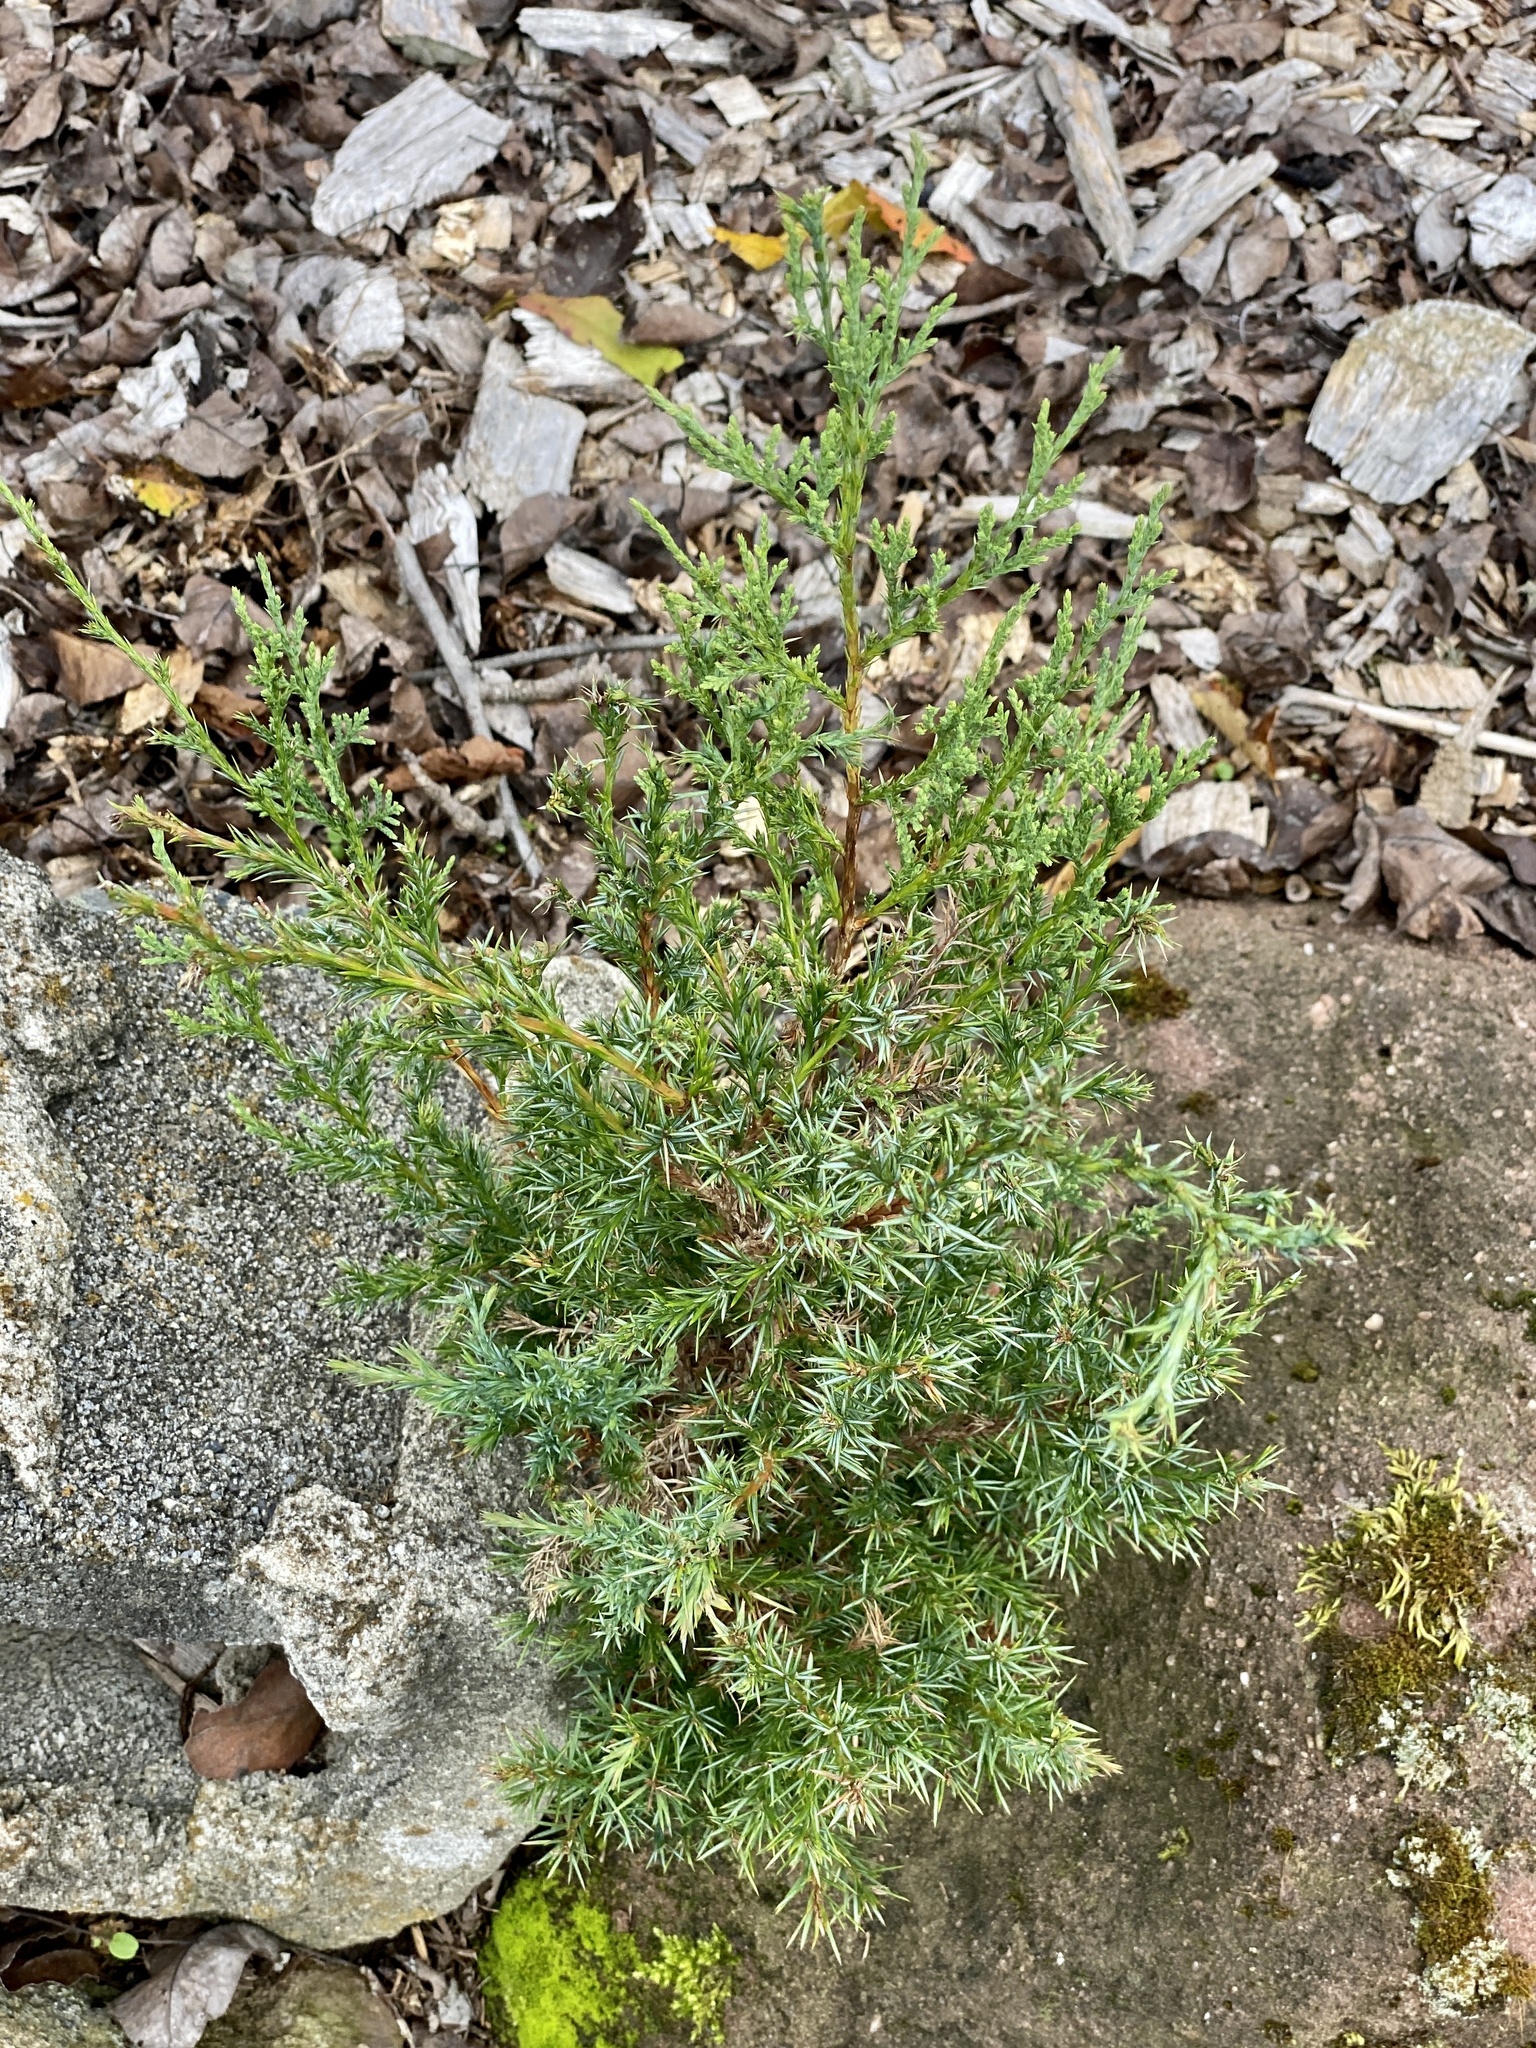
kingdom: Plantae
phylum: Tracheophyta
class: Pinopsida
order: Pinales
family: Cupressaceae
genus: Juniperus
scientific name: Juniperus virginiana
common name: Red juniper
